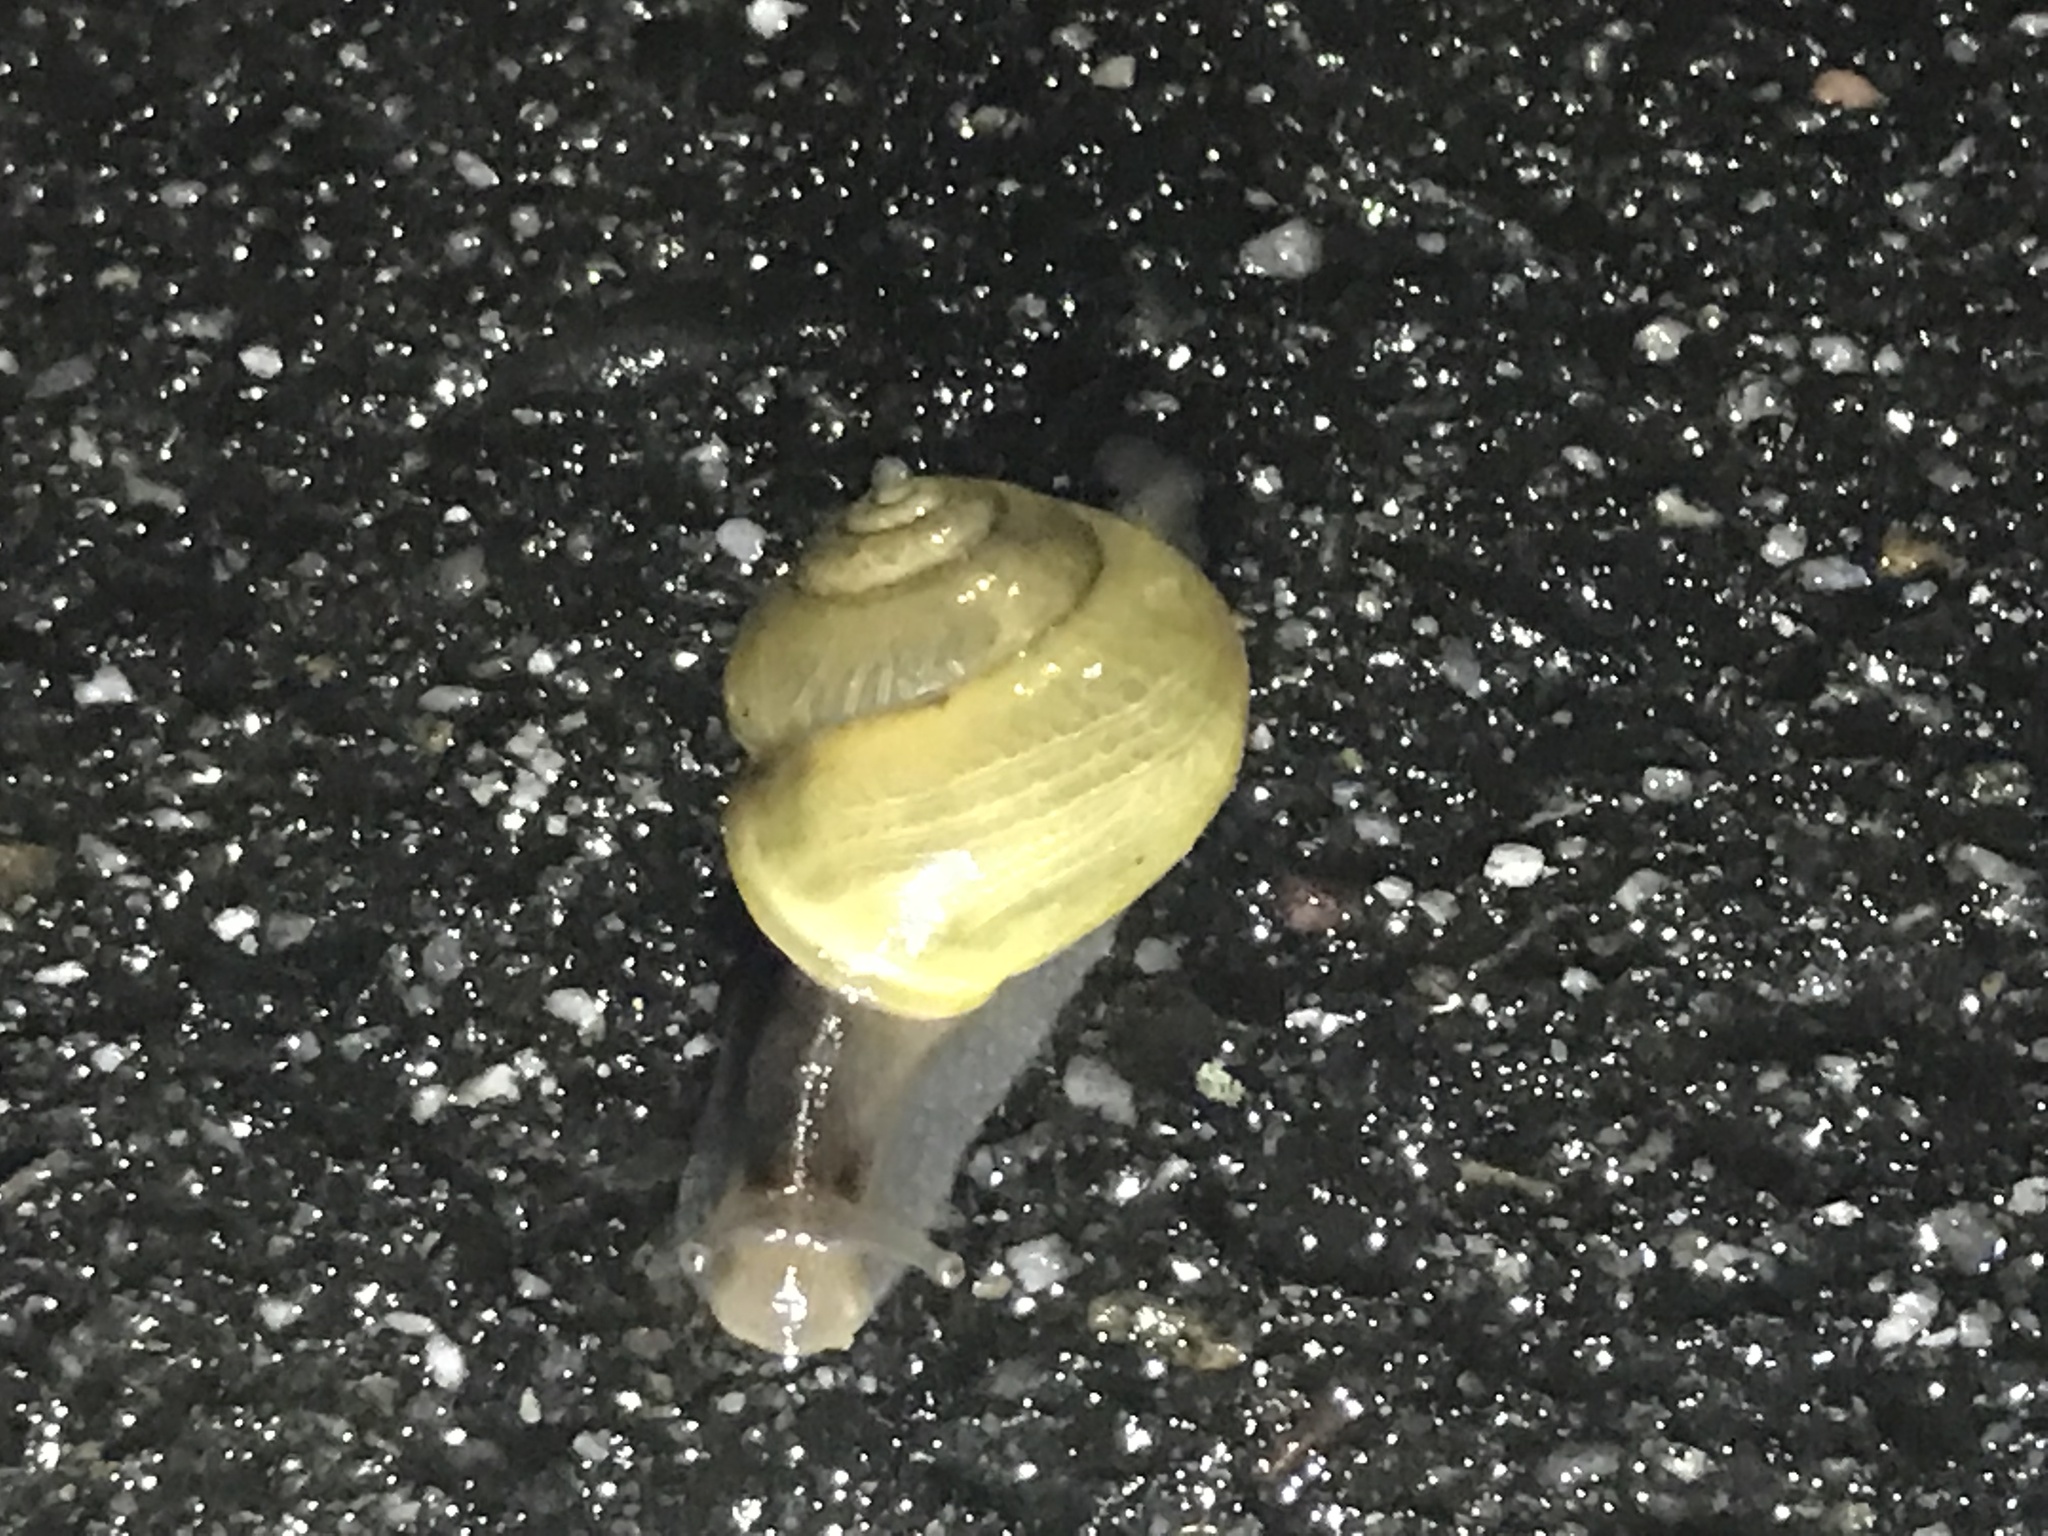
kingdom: Animalia
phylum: Mollusca
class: Gastropoda
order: Stylommatophora
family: Helicidae
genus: Cepaea
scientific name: Cepaea hortensis
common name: White-lip gardensnail
